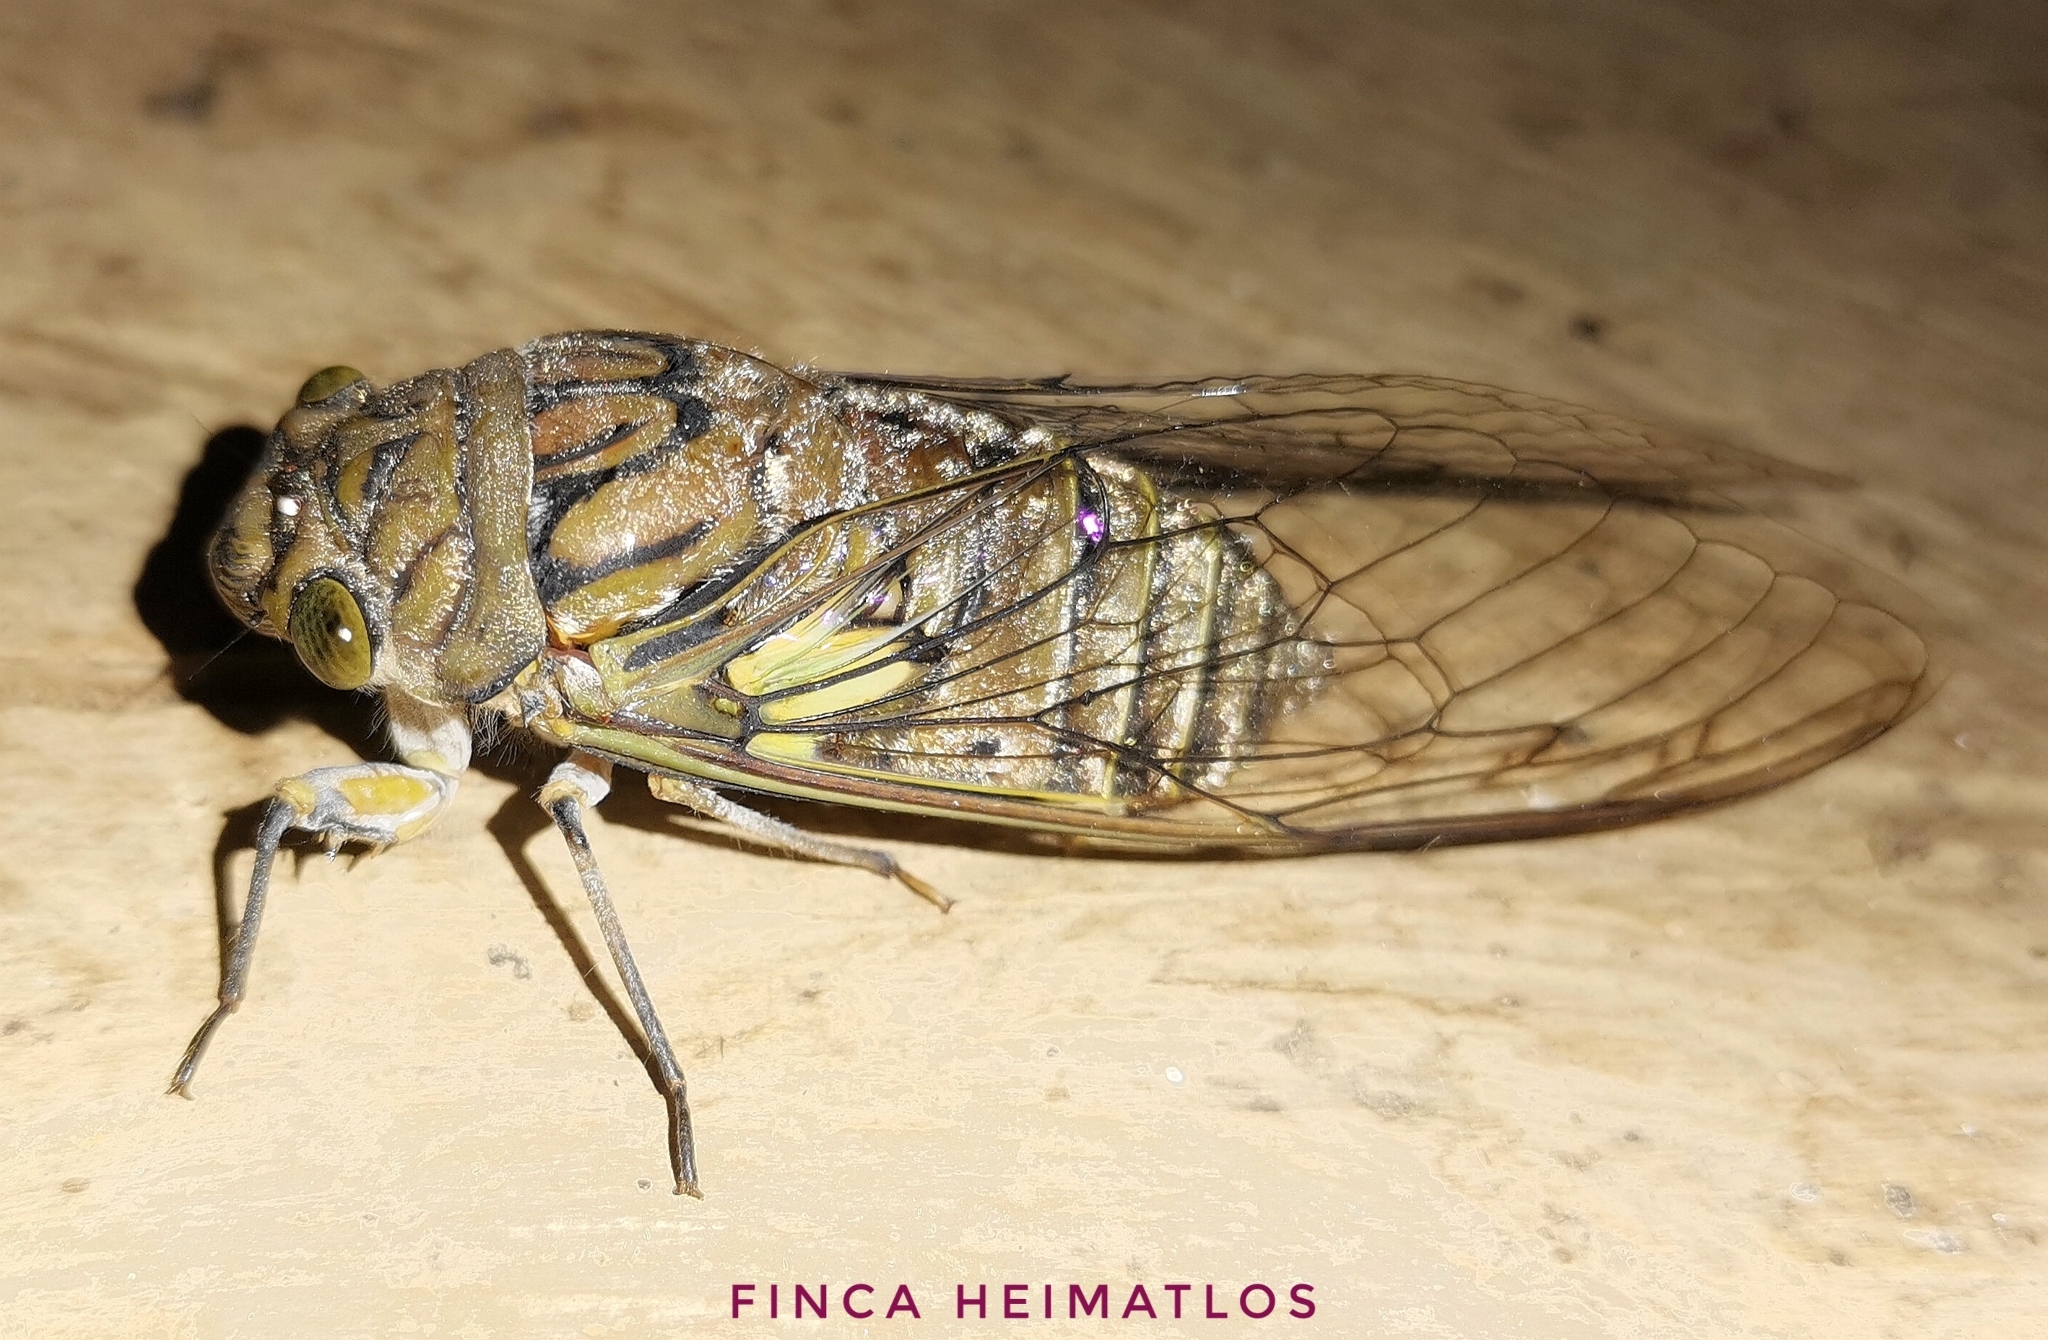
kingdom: Animalia
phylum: Arthropoda
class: Insecta
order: Hemiptera
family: Cicadidae
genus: Quesada
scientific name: Quesada gigas
